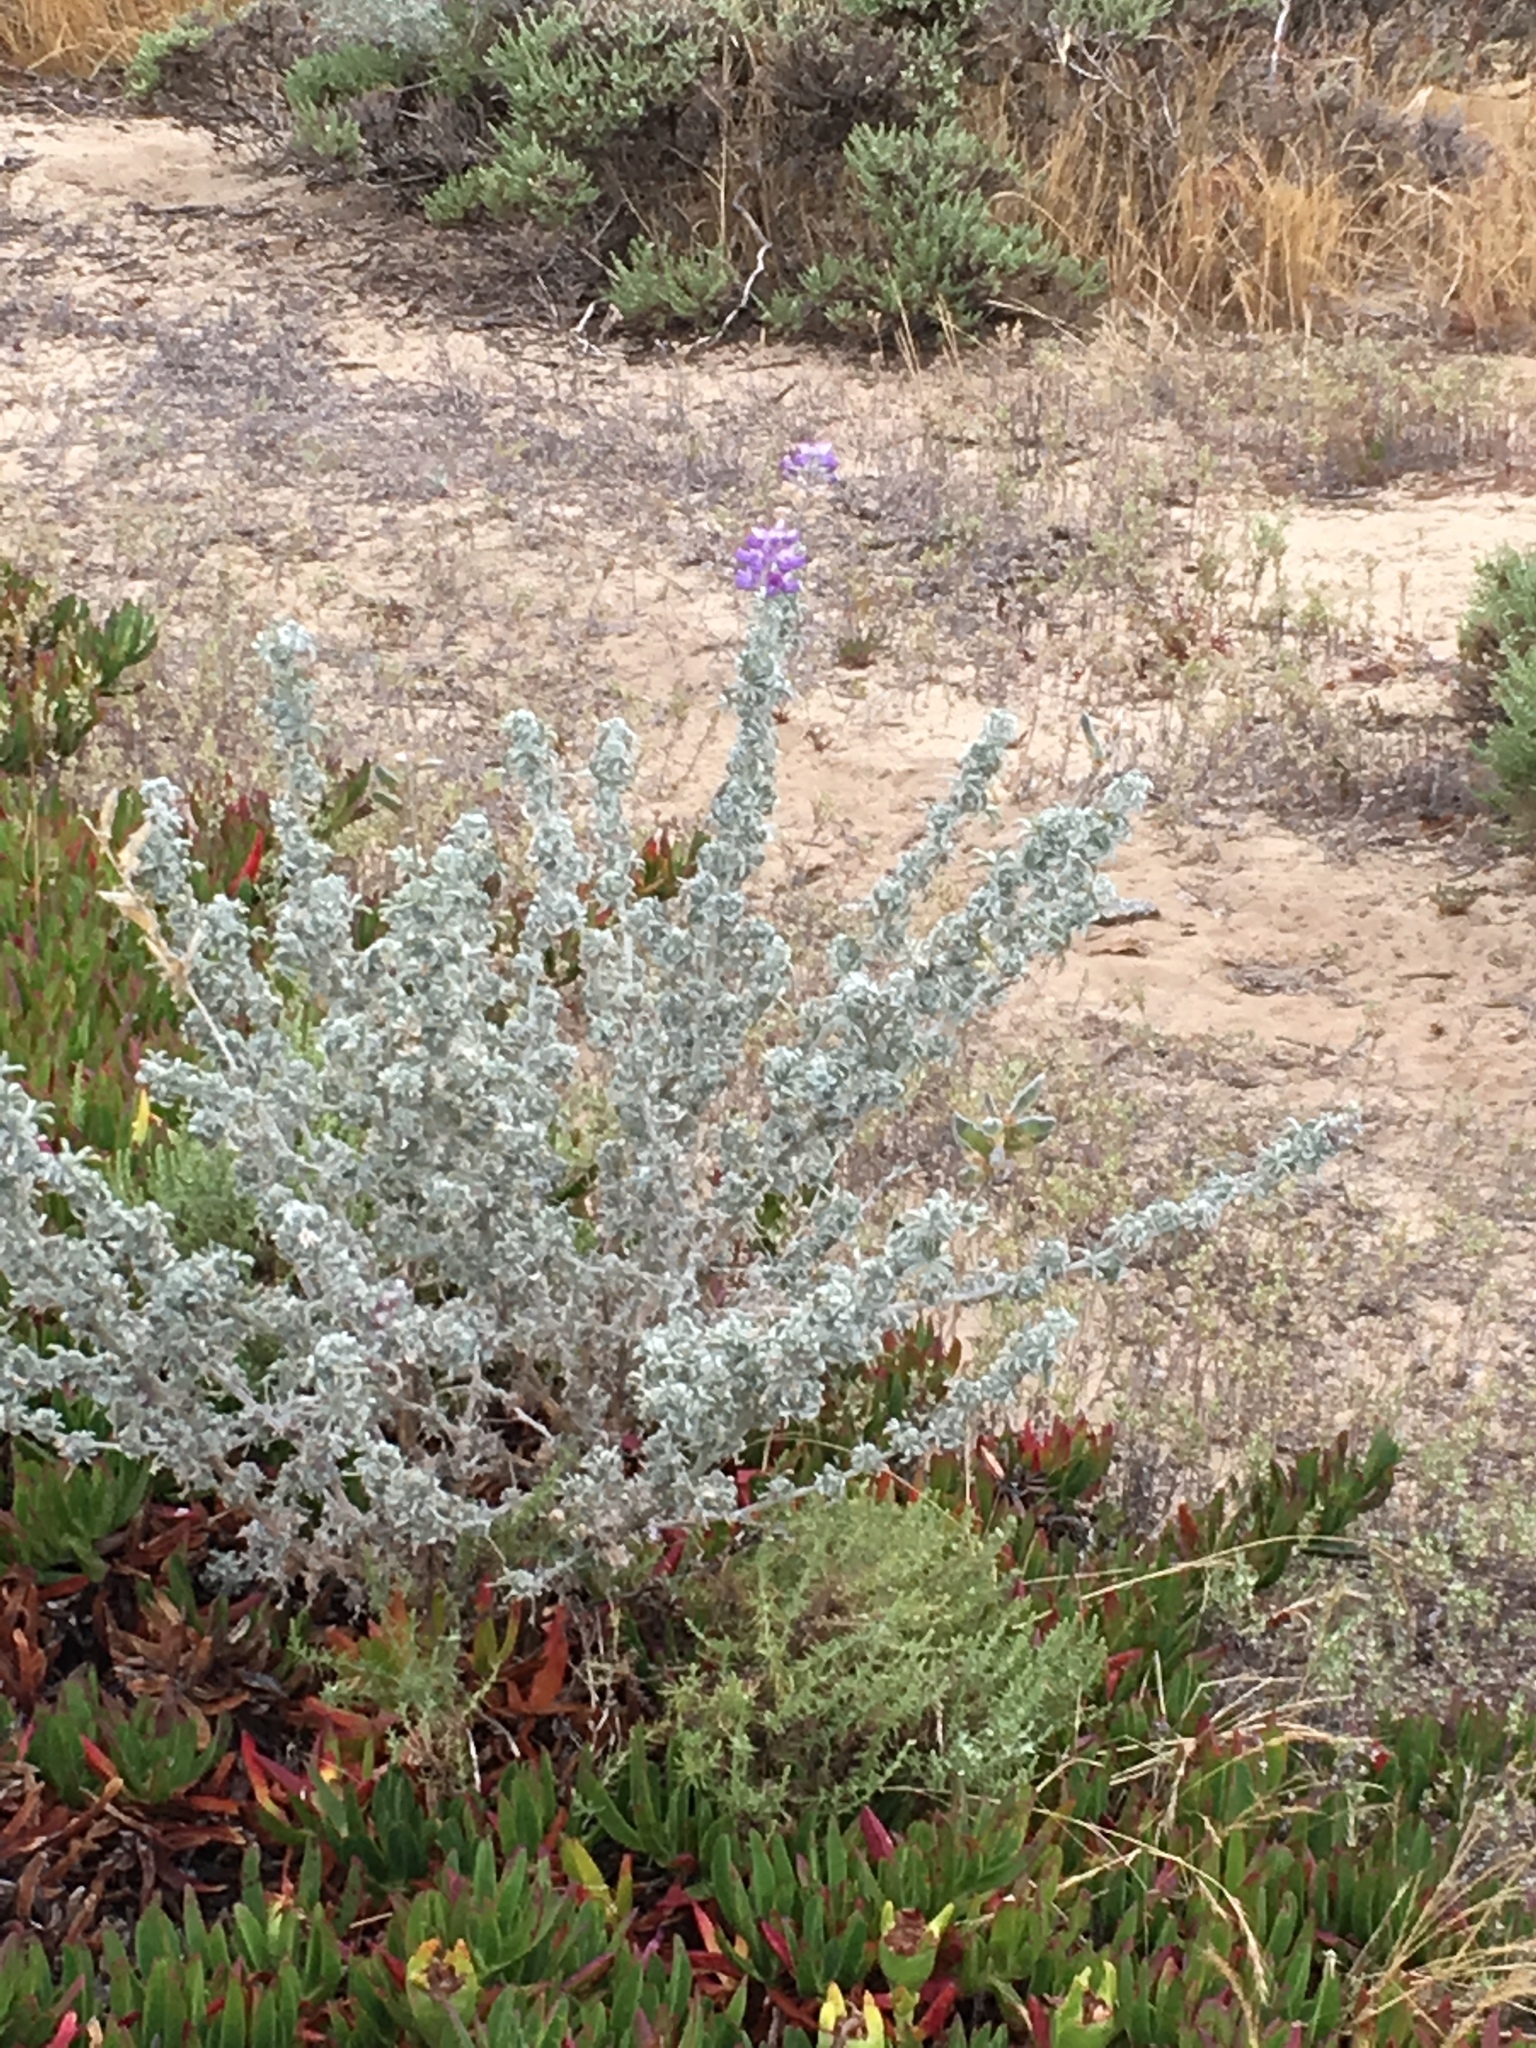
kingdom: Plantae
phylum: Tracheophyta
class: Magnoliopsida
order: Fabales
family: Fabaceae
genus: Lupinus
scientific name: Lupinus chamissonis
